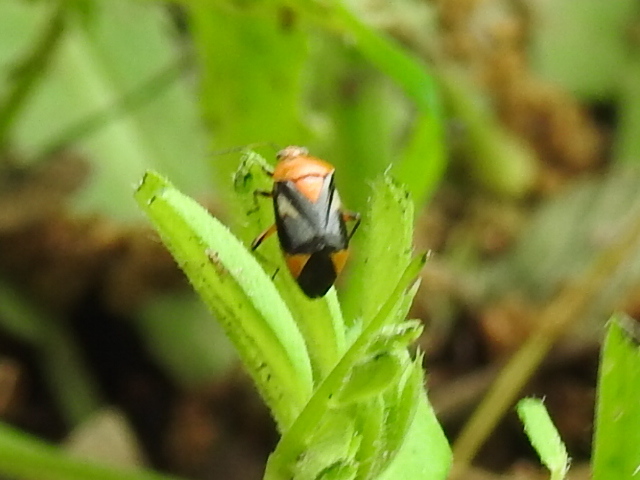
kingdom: Animalia
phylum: Arthropoda
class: Insecta
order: Hemiptera
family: Miridae
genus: Neocapsus
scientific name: Neocapsus cuneatus
